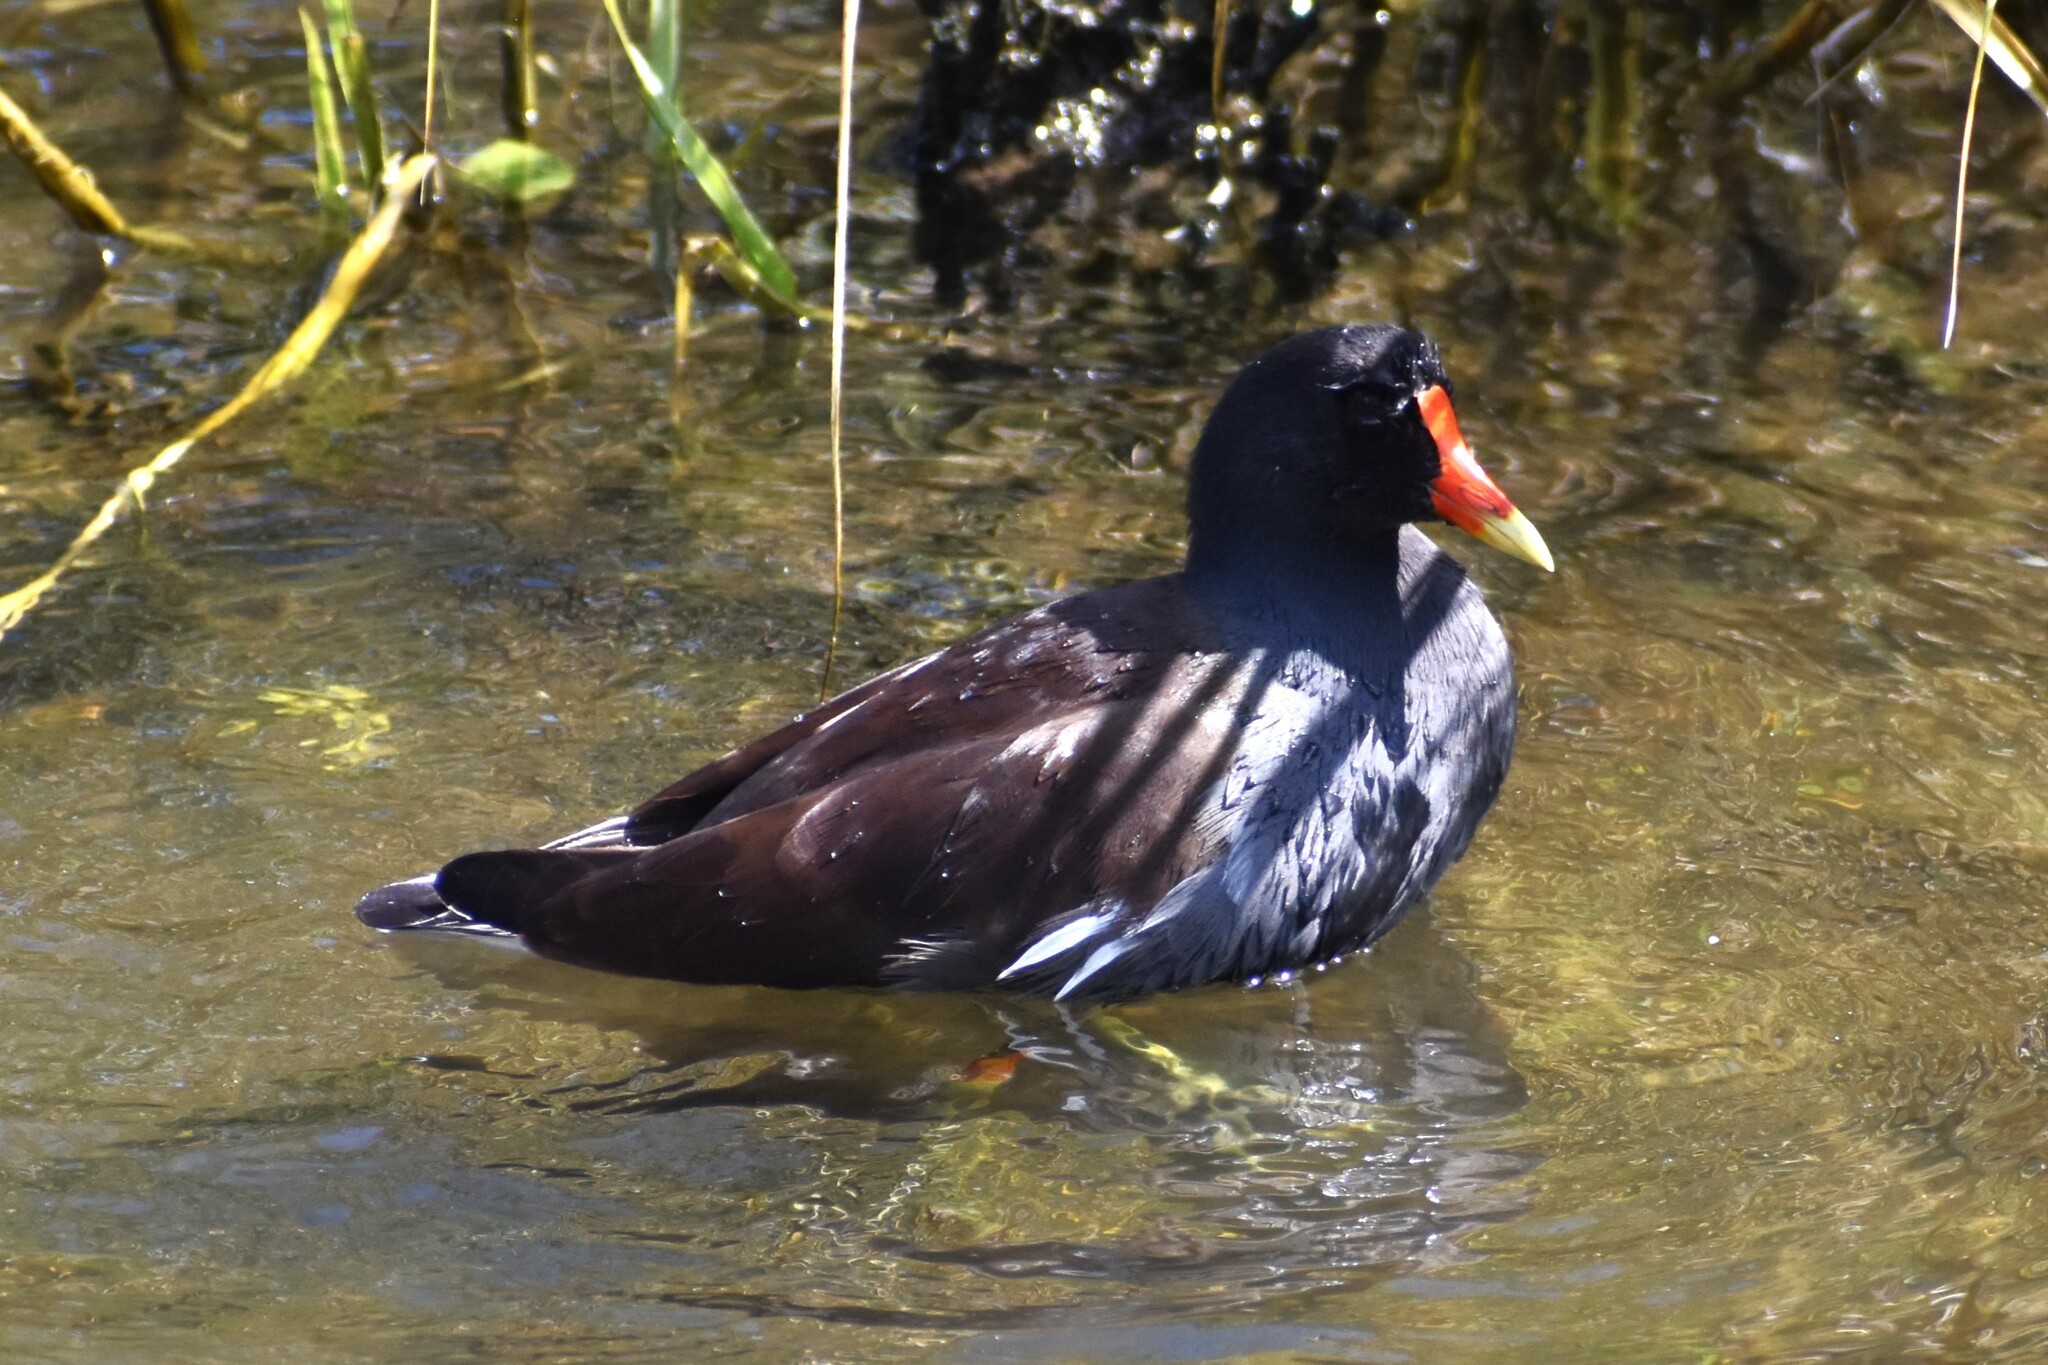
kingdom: Animalia
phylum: Chordata
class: Aves
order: Gruiformes
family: Rallidae
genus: Gallinula
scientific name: Gallinula chloropus
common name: Common moorhen
